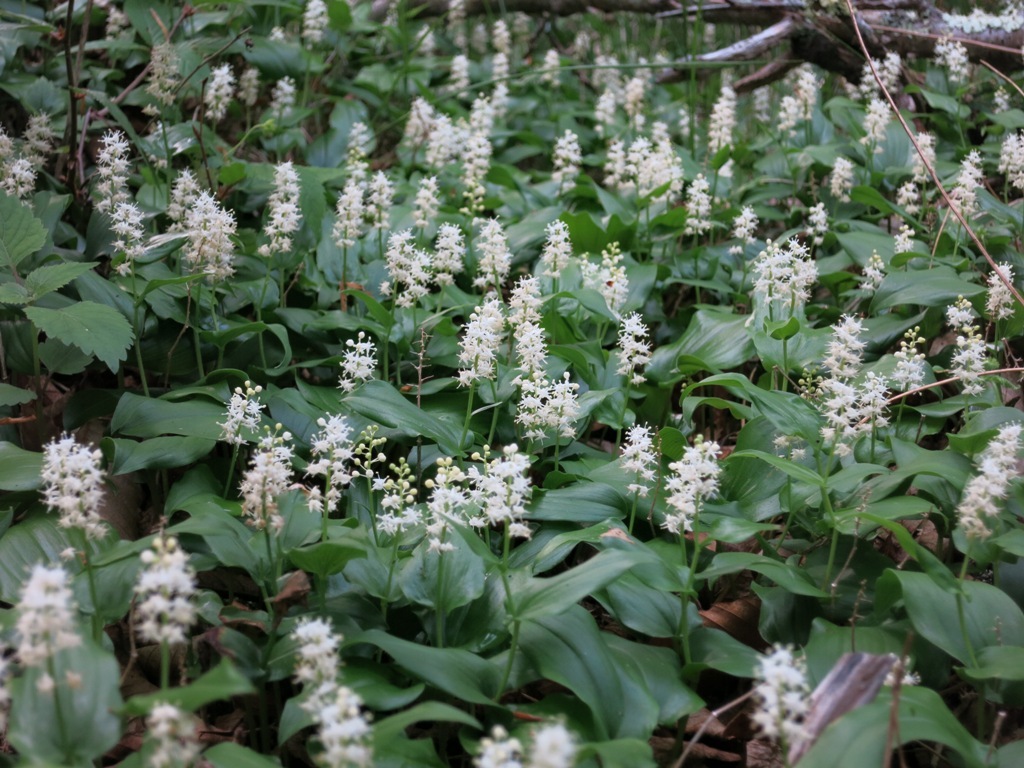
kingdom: Plantae
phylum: Tracheophyta
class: Liliopsida
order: Asparagales
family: Asparagaceae
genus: Maianthemum
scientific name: Maianthemum canadense
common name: False lily-of-the-valley
